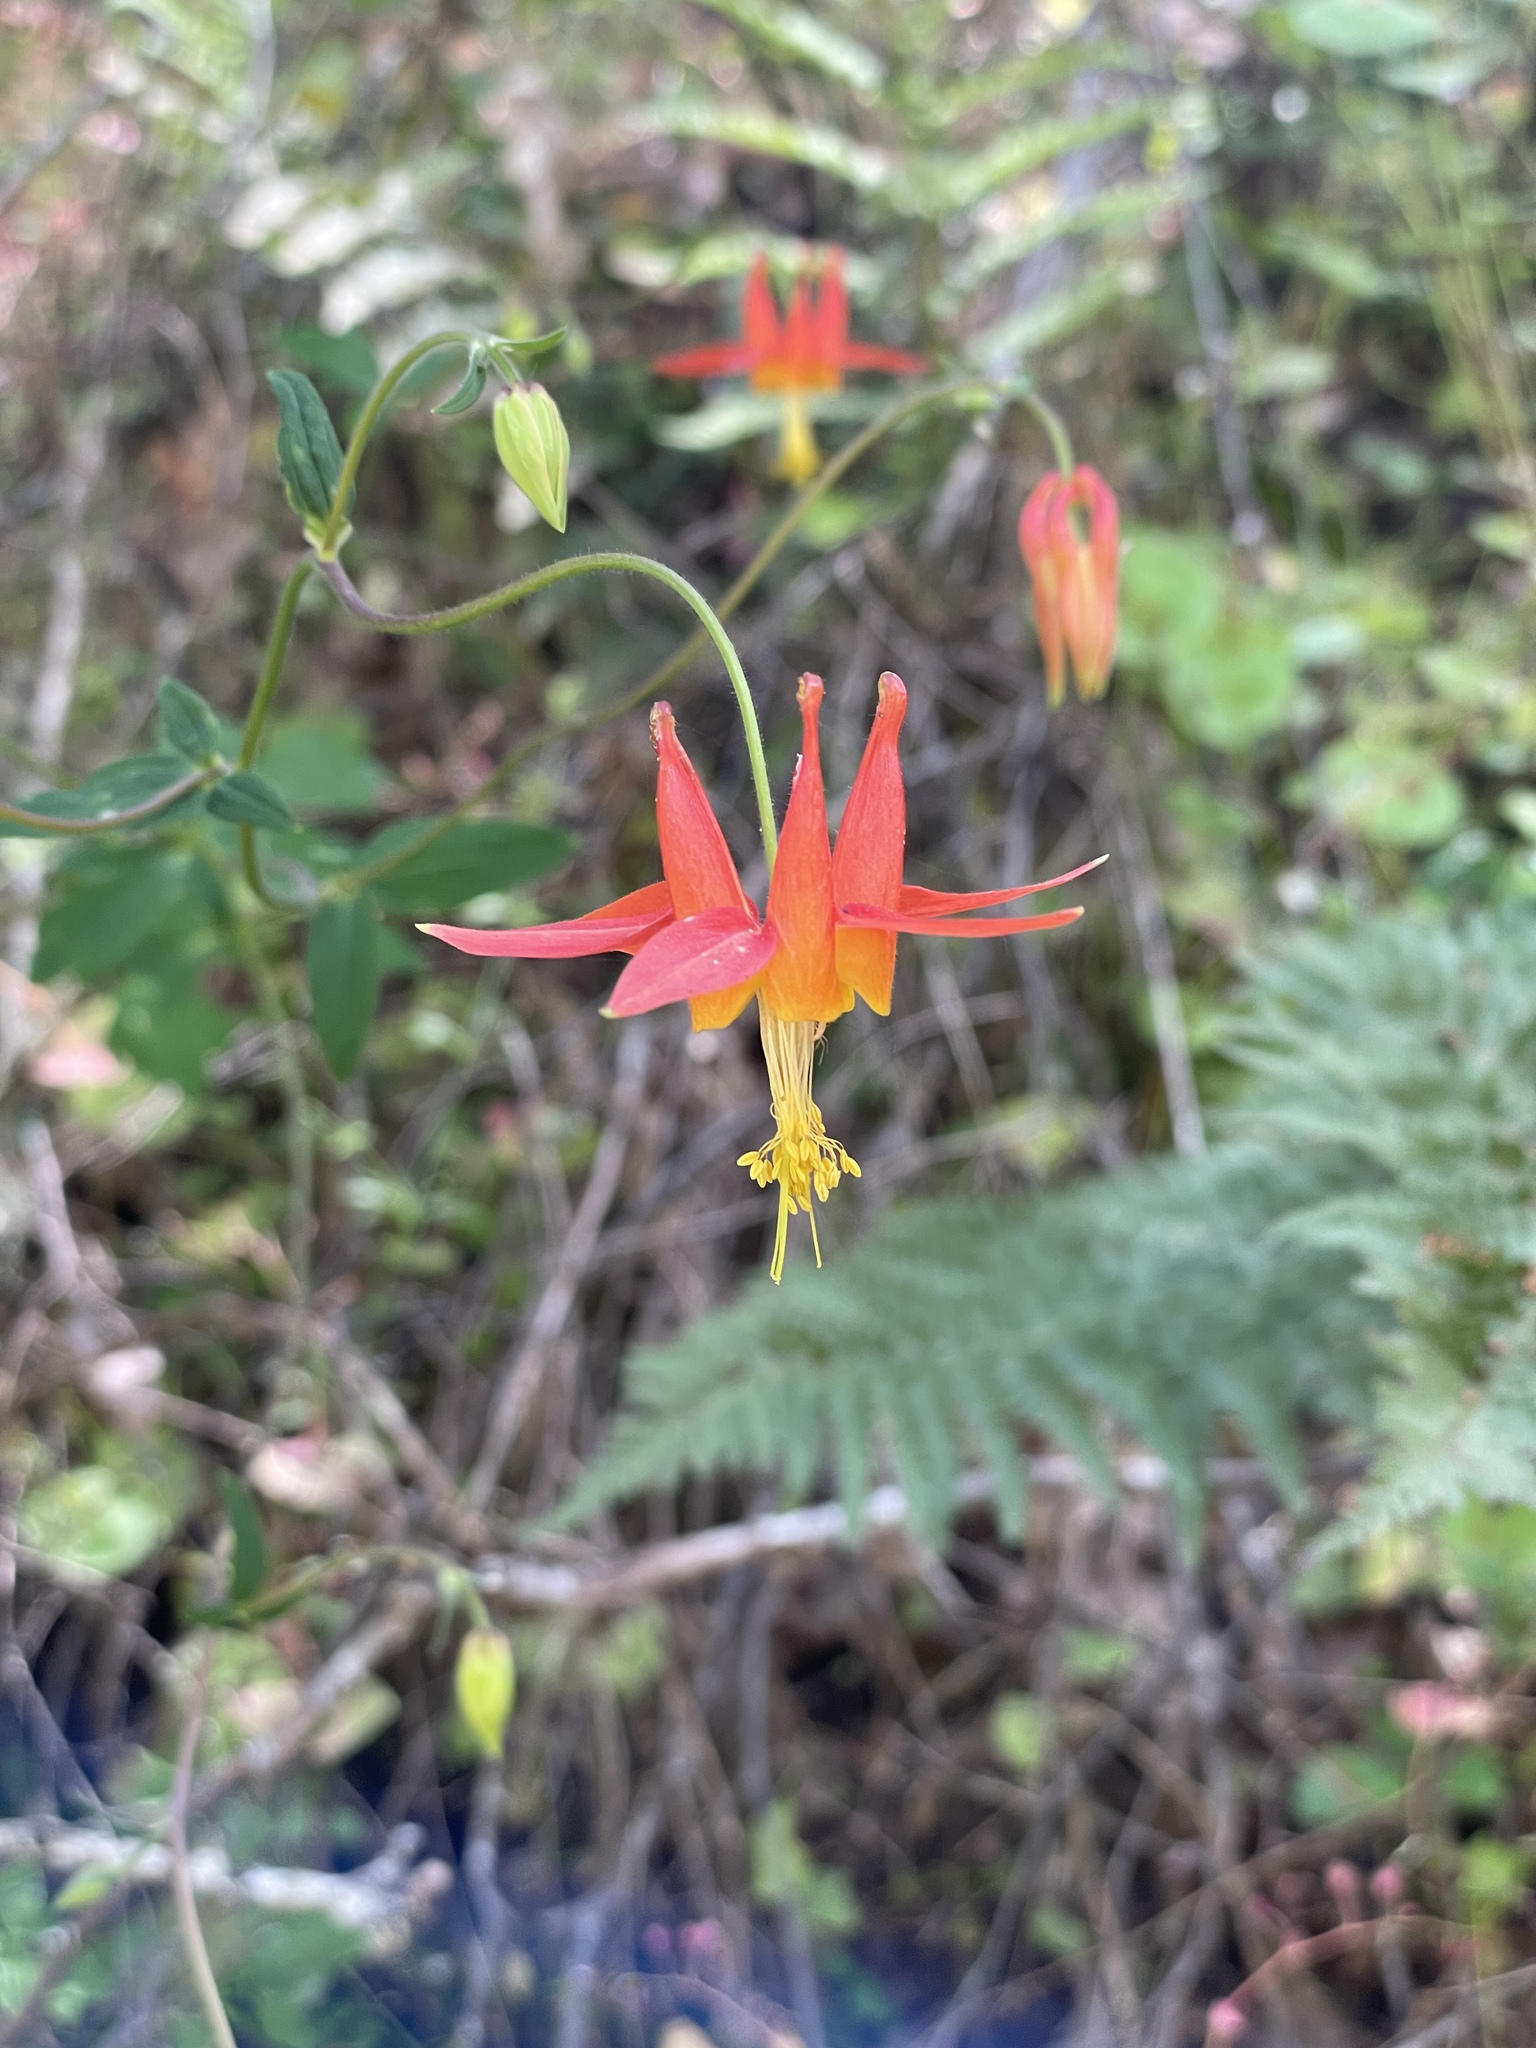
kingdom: Plantae
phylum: Tracheophyta
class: Magnoliopsida
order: Ranunculales
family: Ranunculaceae
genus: Aquilegia
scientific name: Aquilegia formosa
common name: Sitka columbine
